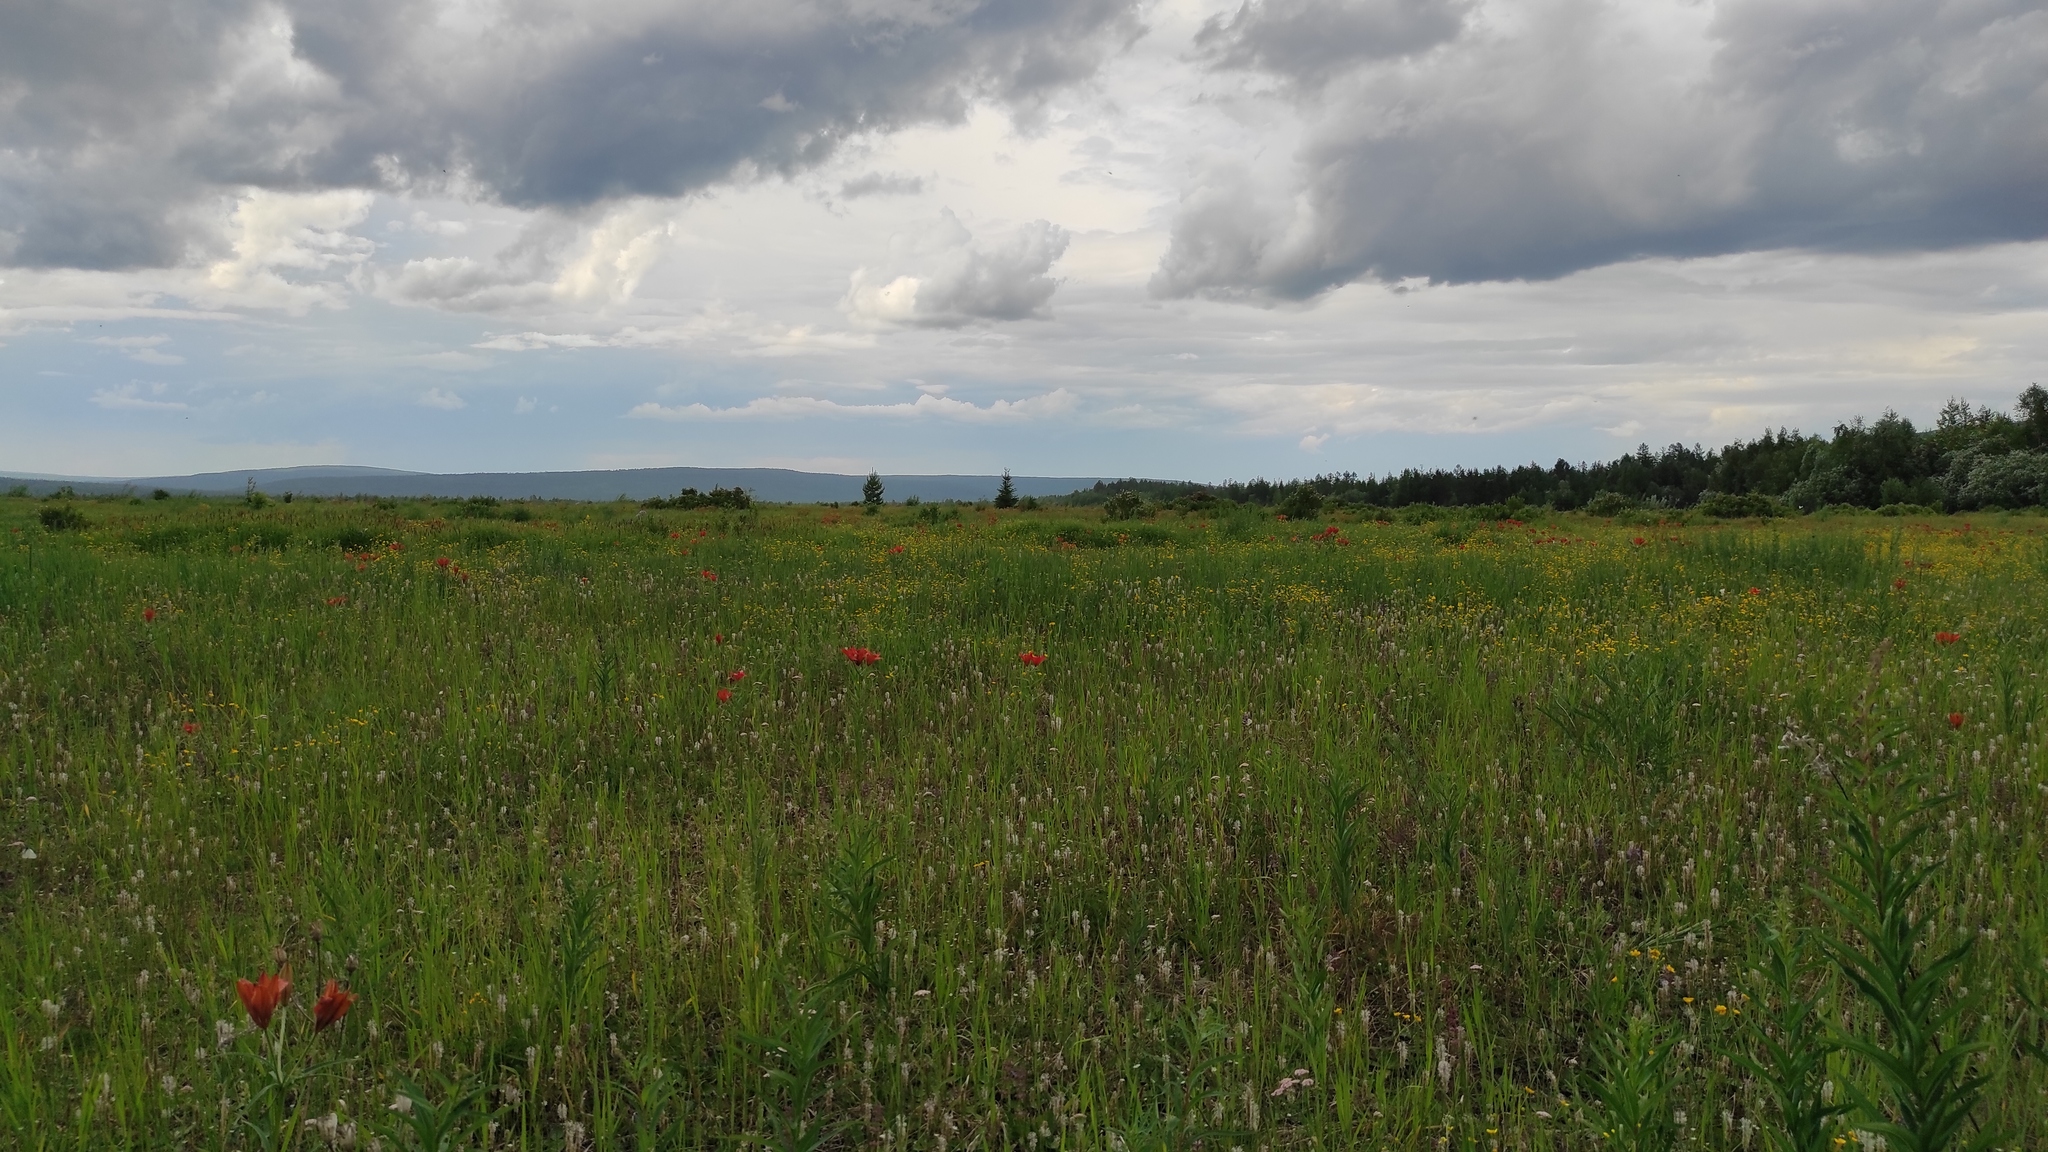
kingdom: Plantae
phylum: Tracheophyta
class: Magnoliopsida
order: Lamiales
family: Plantaginaceae
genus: Plantago
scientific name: Plantago media
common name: Hoary plantain
